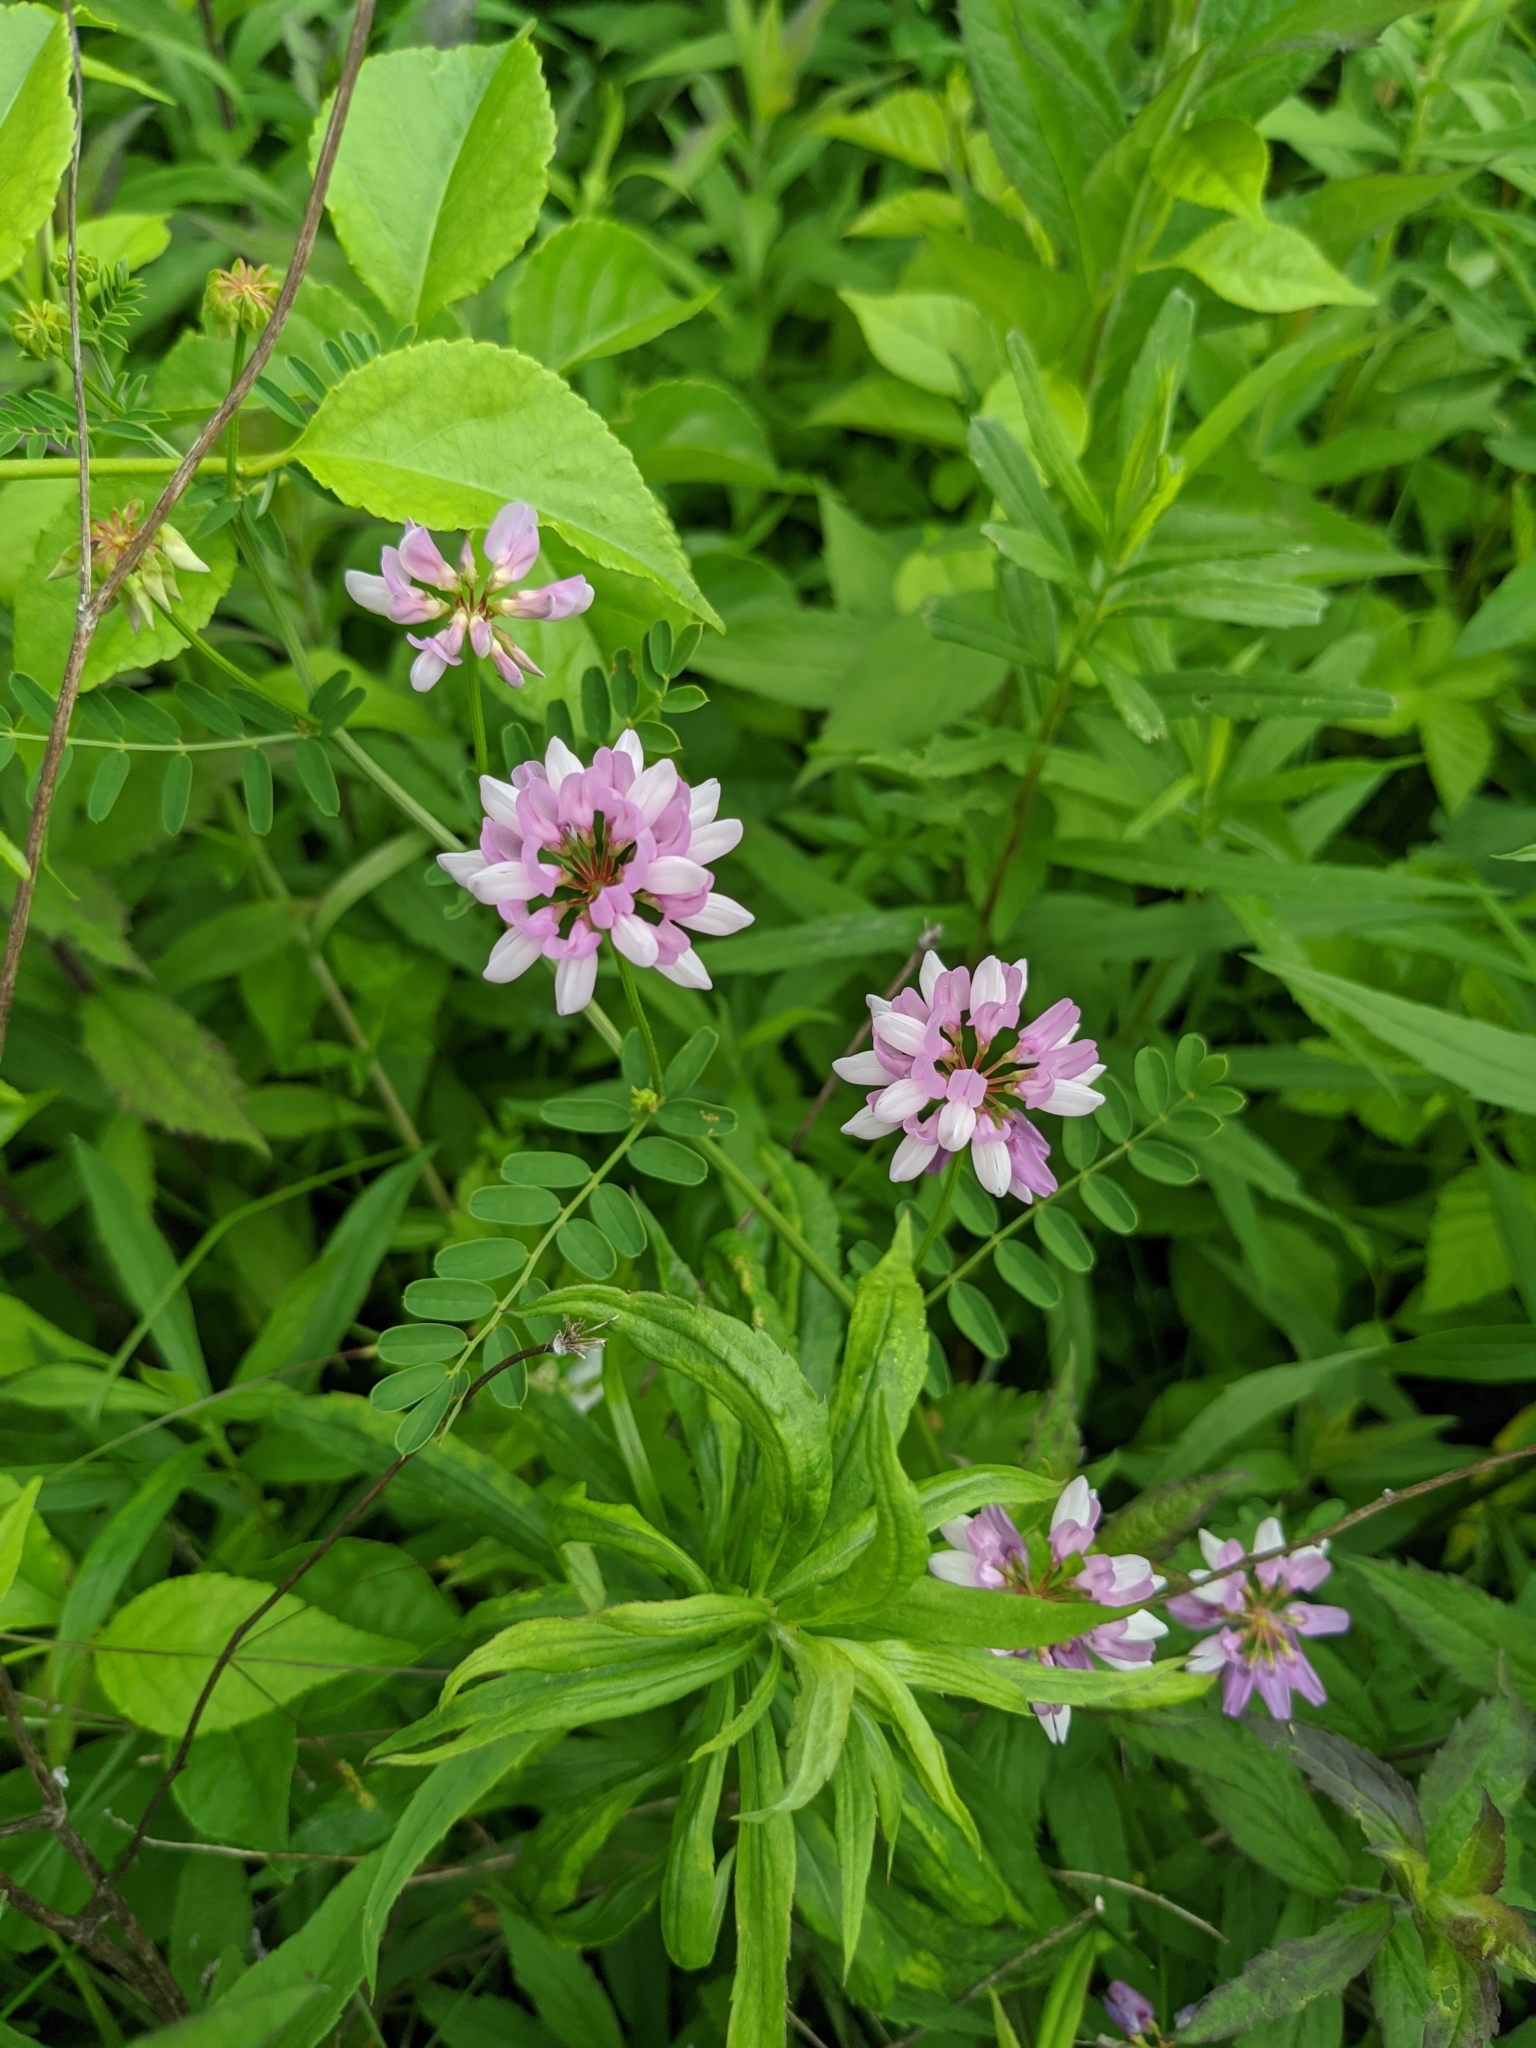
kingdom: Plantae
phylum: Tracheophyta
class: Magnoliopsida
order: Fabales
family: Fabaceae
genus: Coronilla
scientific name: Coronilla varia
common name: Crownvetch
